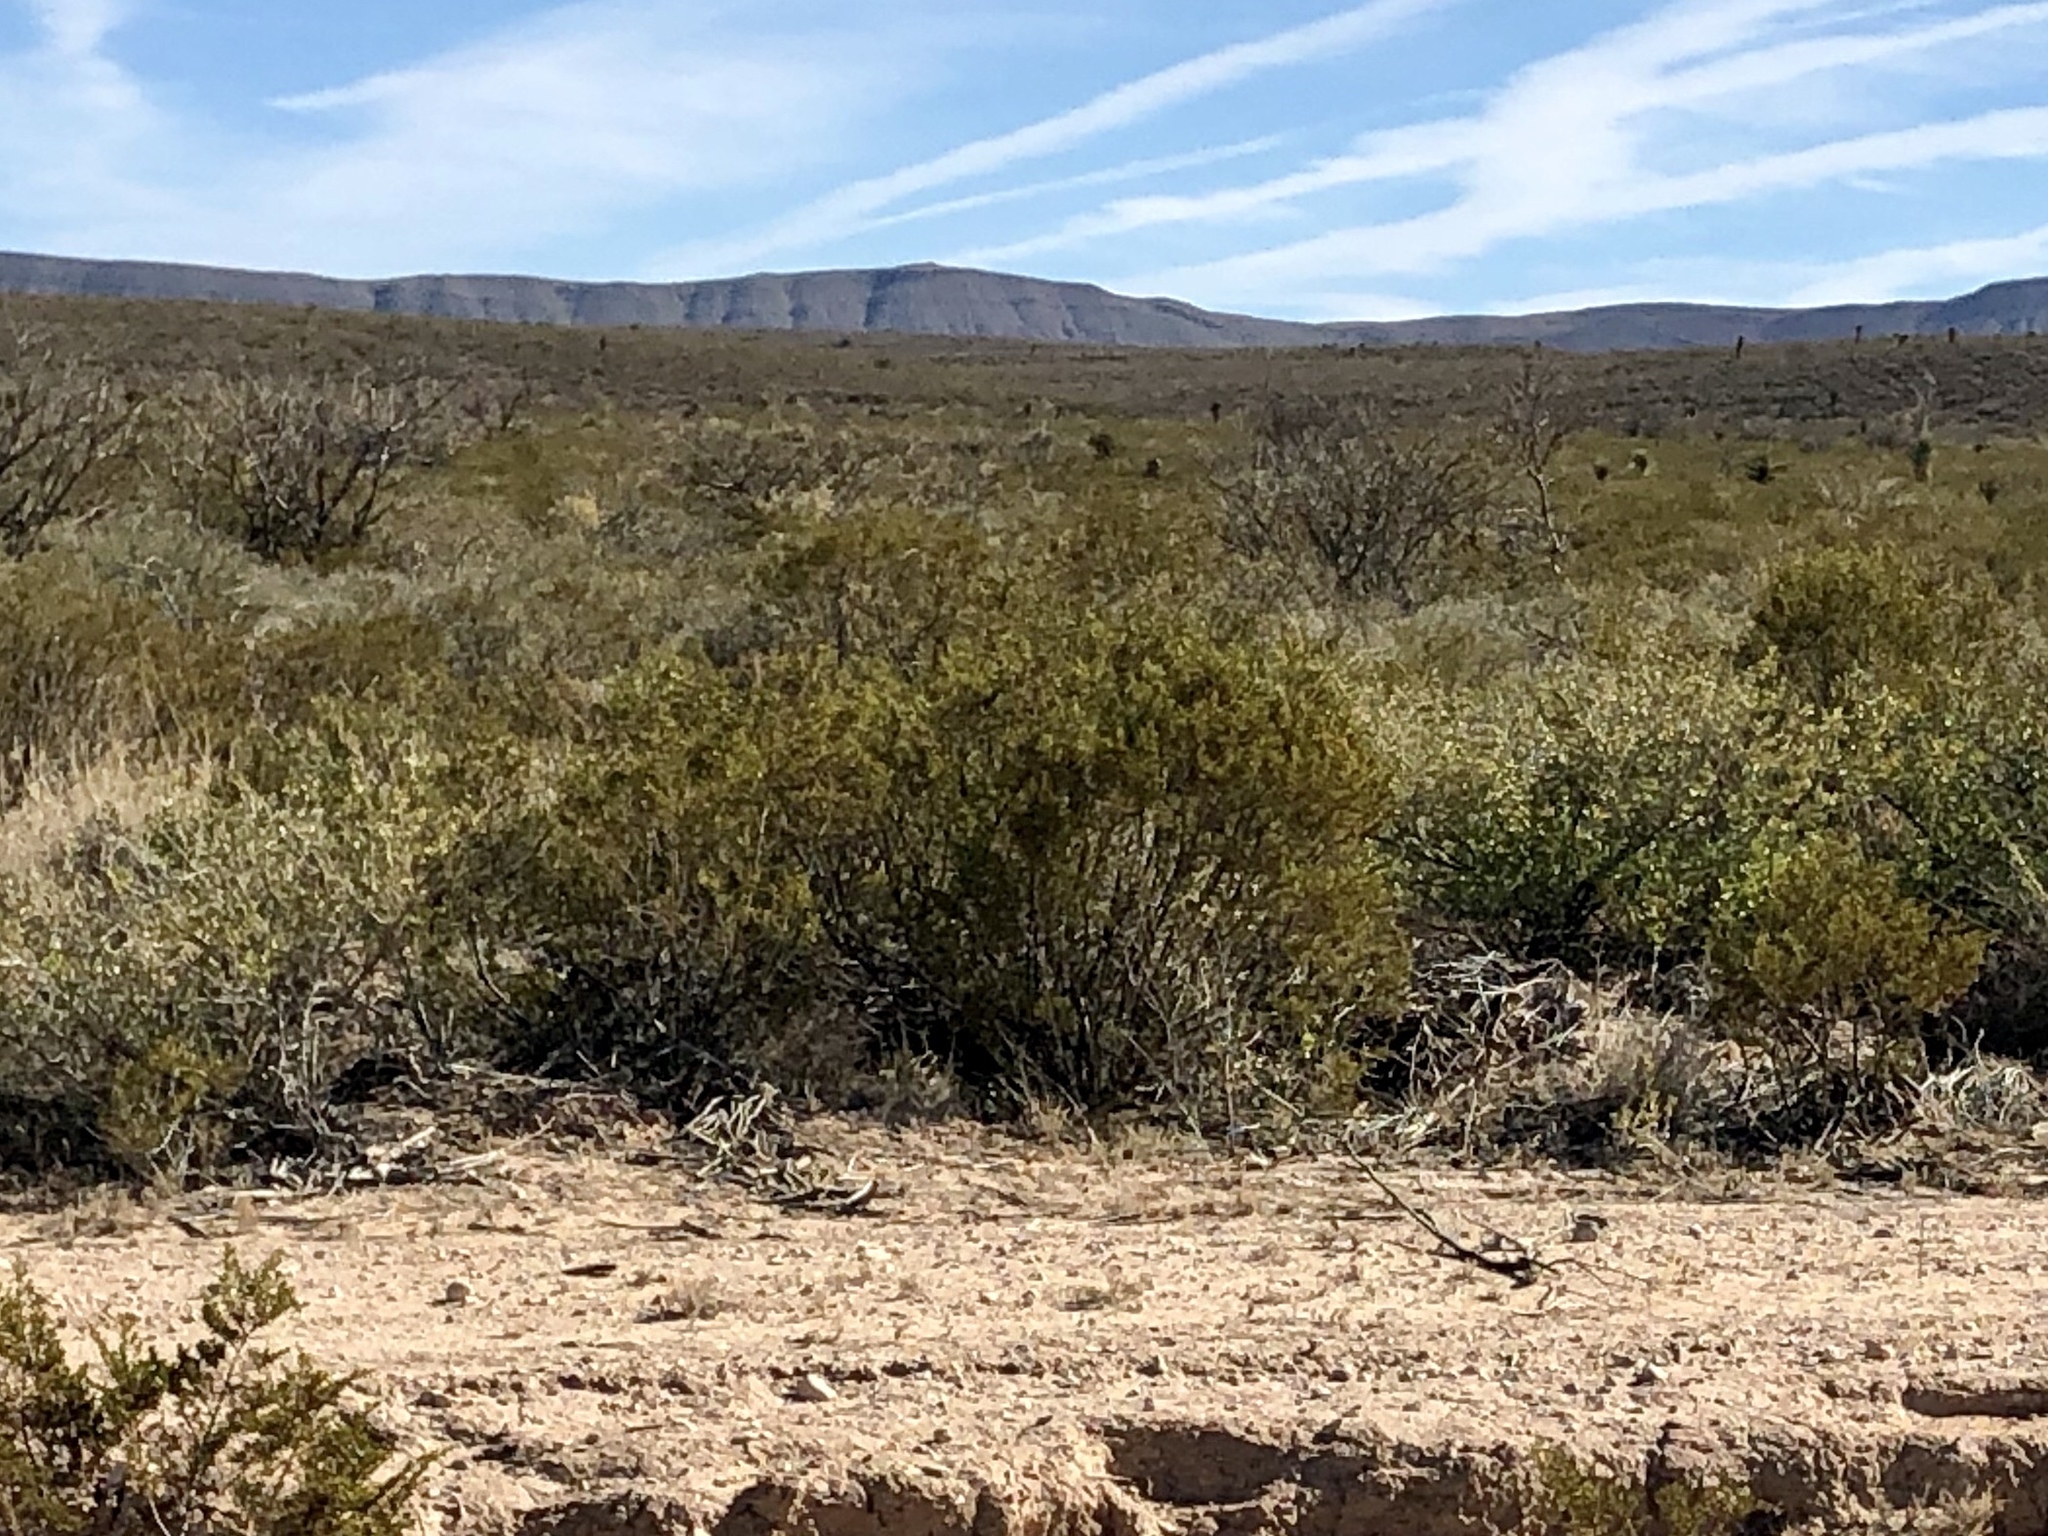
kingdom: Plantae
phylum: Tracheophyta
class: Magnoliopsida
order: Zygophyllales
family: Zygophyllaceae
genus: Larrea
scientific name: Larrea tridentata
